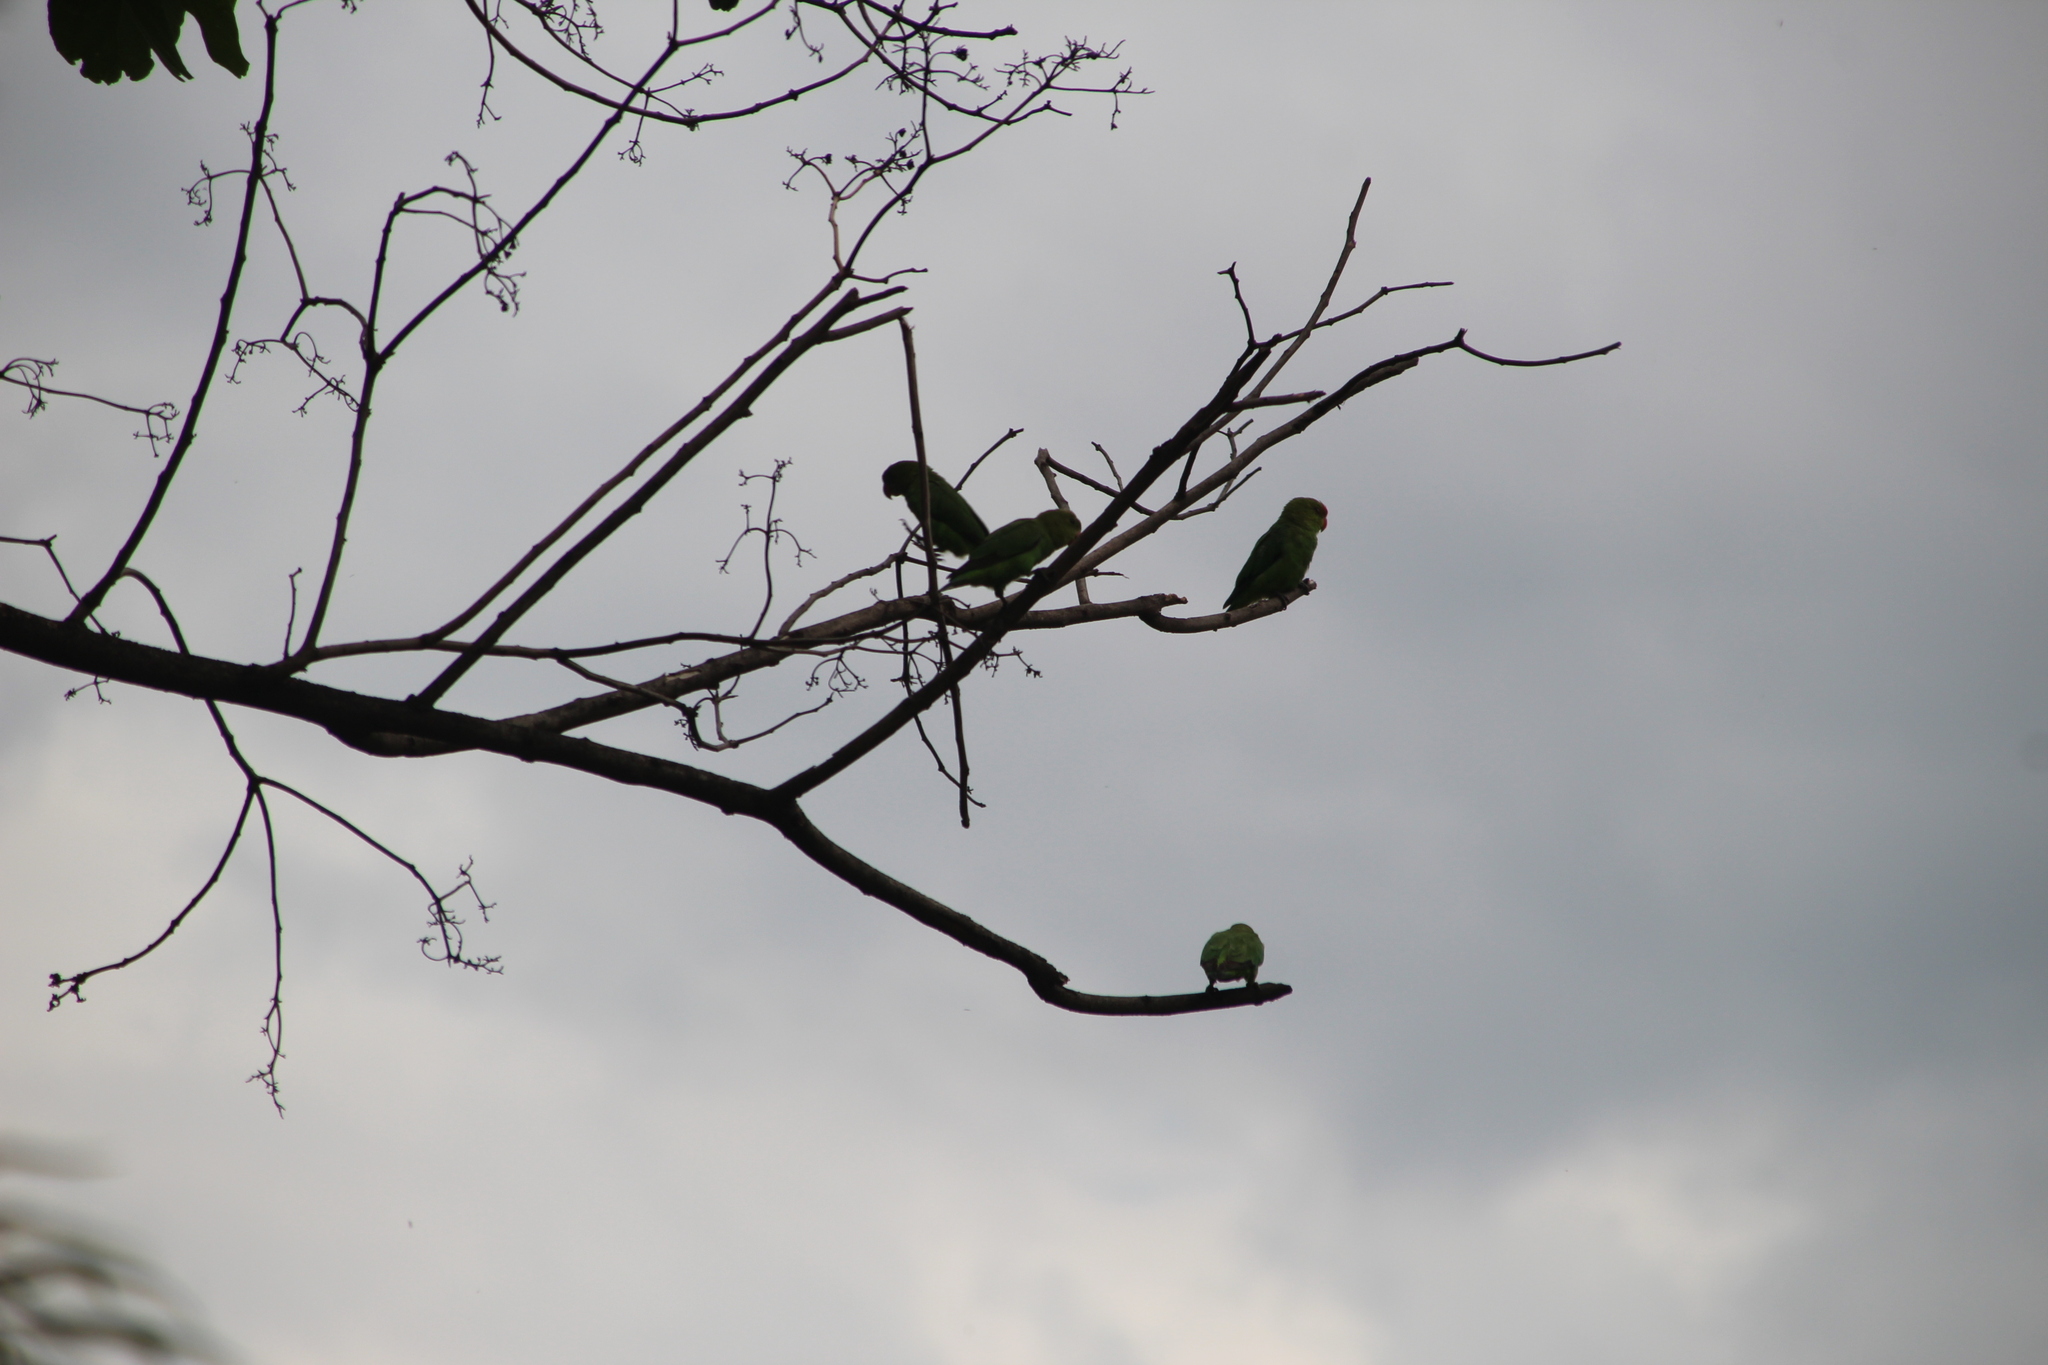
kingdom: Animalia
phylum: Chordata
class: Aves
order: Psittaciformes
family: Psittacidae
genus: Agapornis
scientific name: Agapornis taranta
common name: Black-winged lovebird
